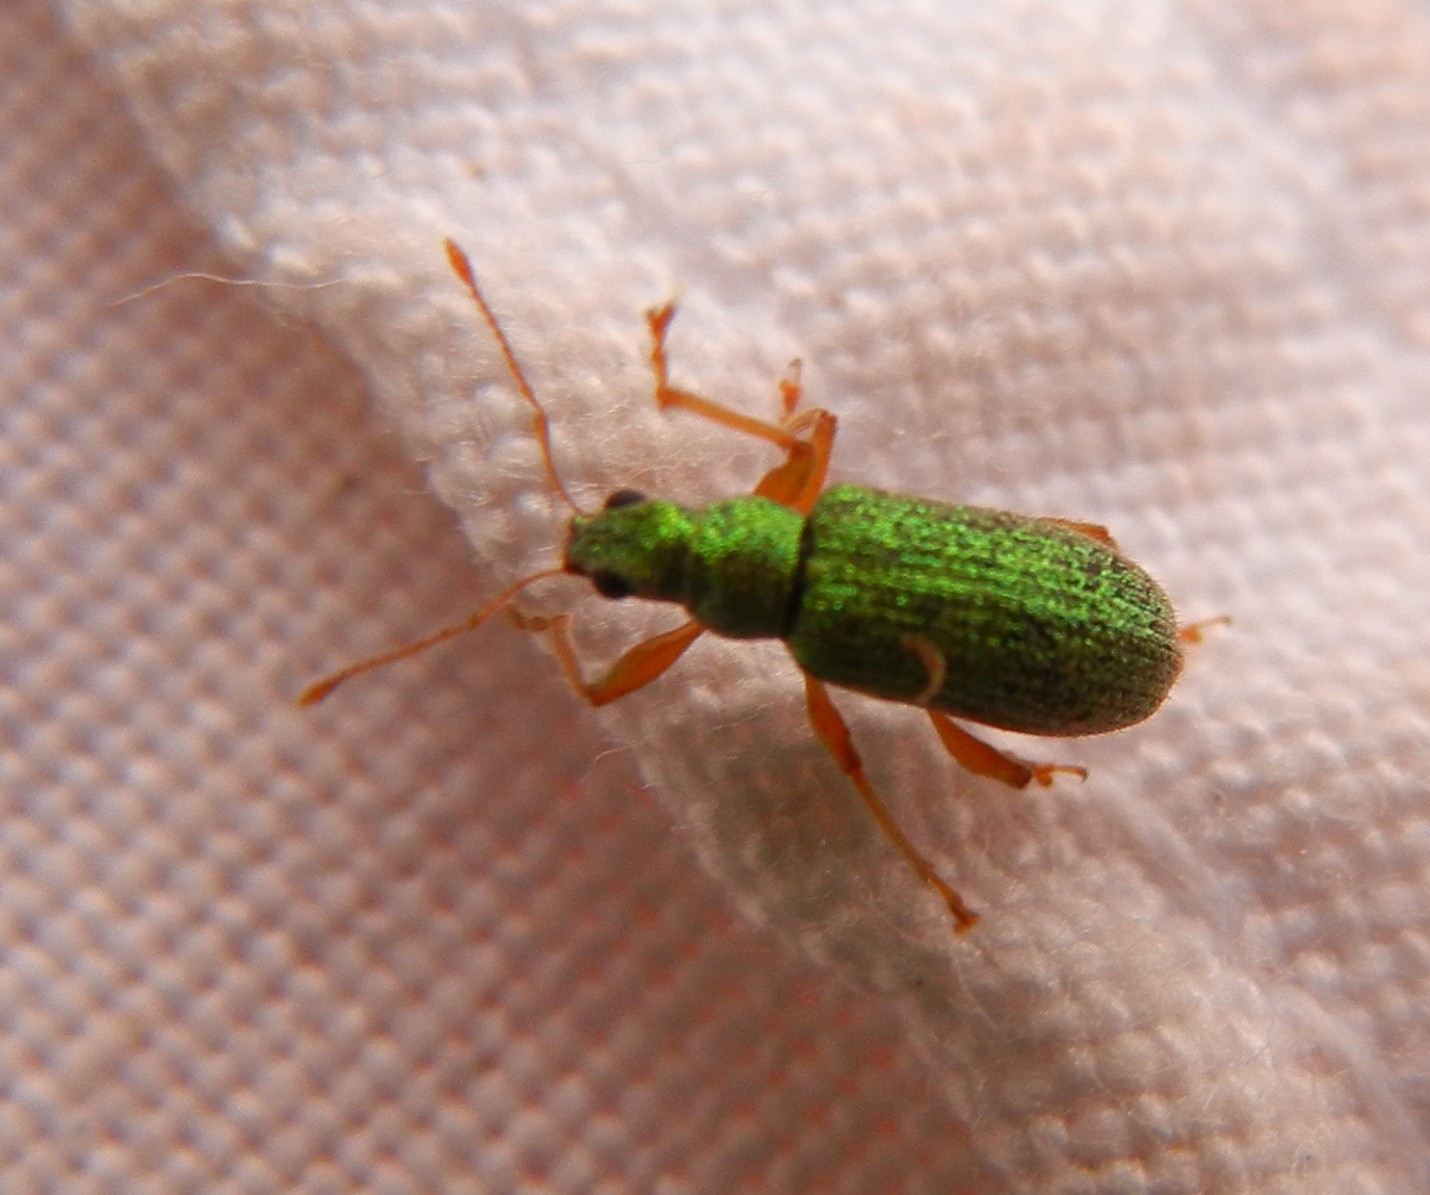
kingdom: Animalia
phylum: Arthropoda
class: Insecta
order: Coleoptera
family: Curculionidae
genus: Polydrusus
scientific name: Polydrusus pterygomalis
